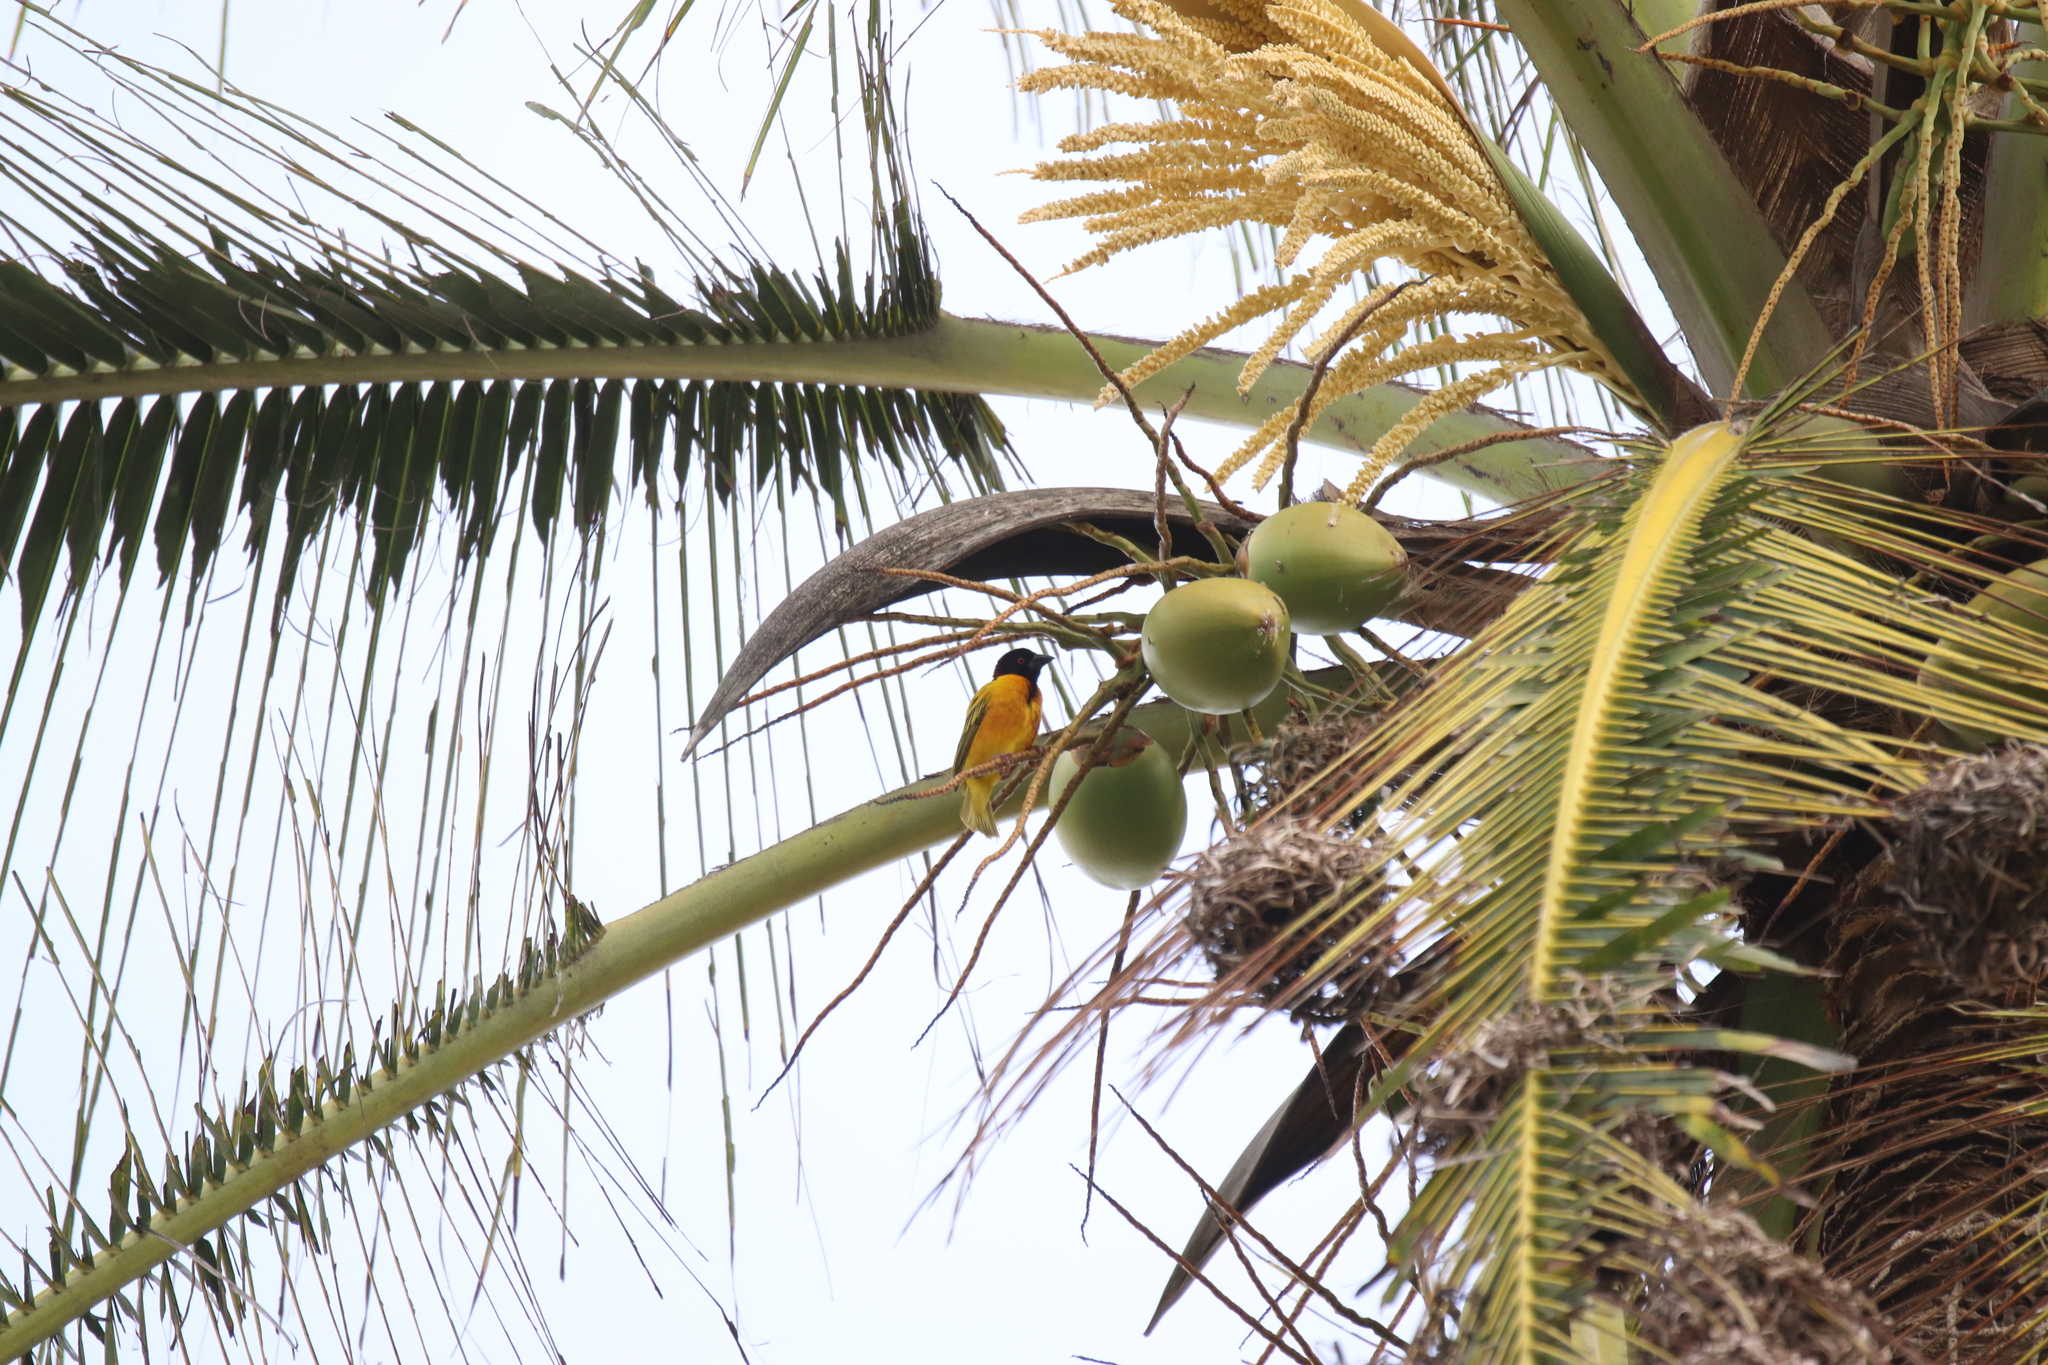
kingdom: Animalia
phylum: Chordata
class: Aves
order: Passeriformes
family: Ploceidae
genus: Ploceus
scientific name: Ploceus cucullatus
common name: Village weaver
